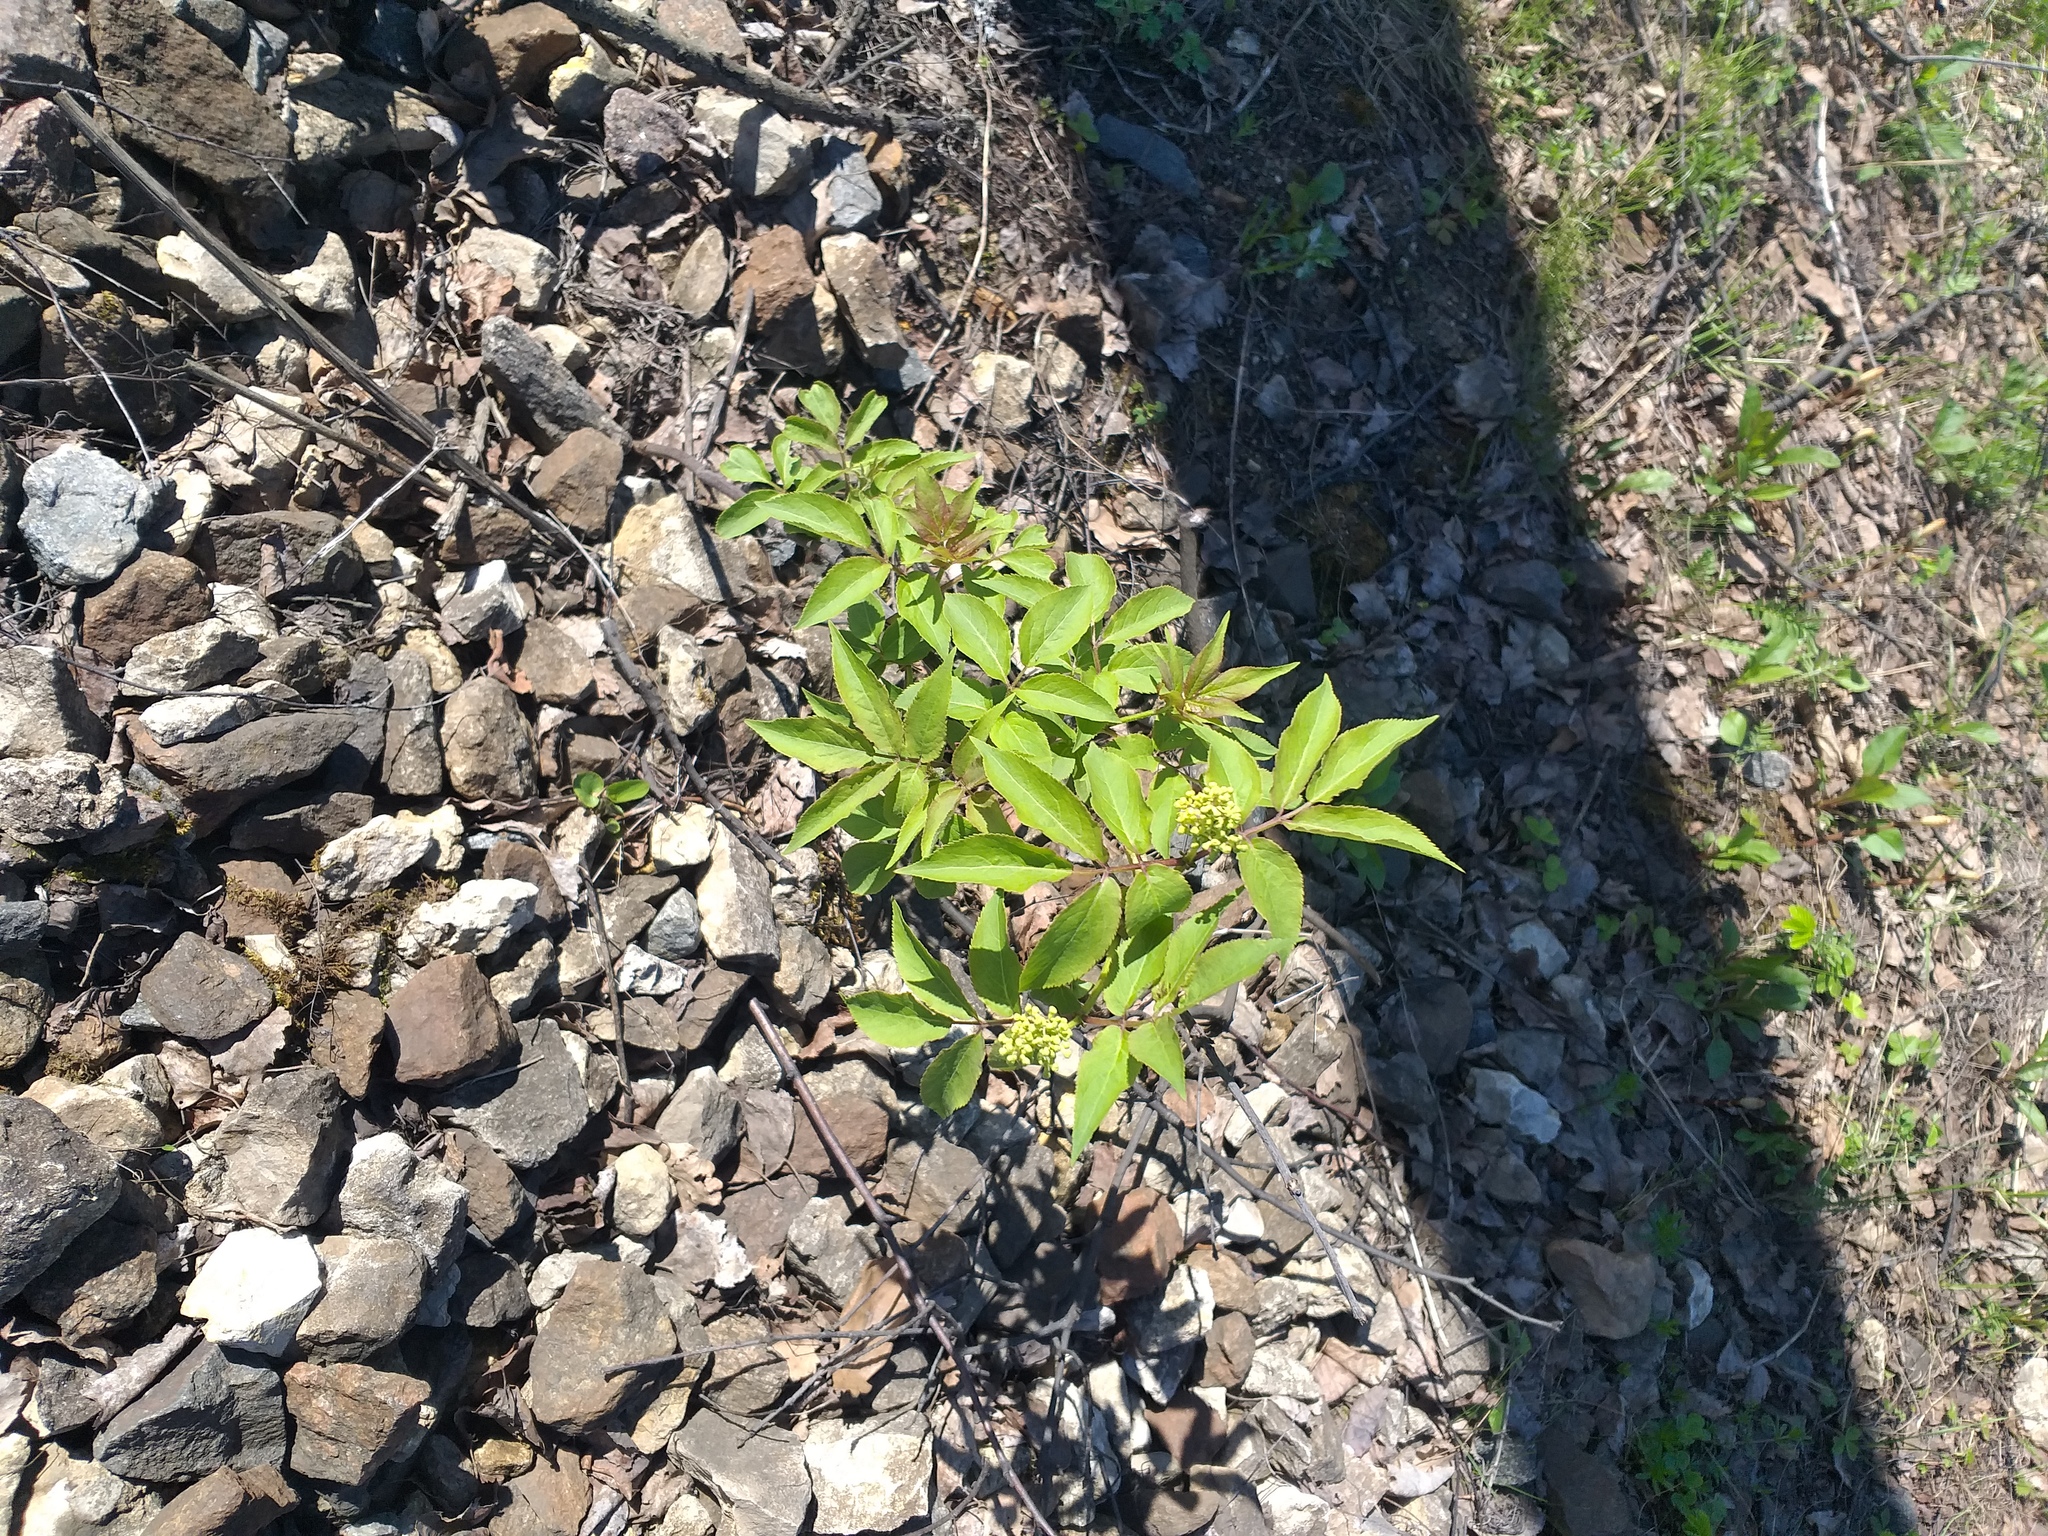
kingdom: Plantae
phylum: Tracheophyta
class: Magnoliopsida
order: Dipsacales
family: Viburnaceae
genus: Sambucus
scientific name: Sambucus racemosa
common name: Red-berried elder
